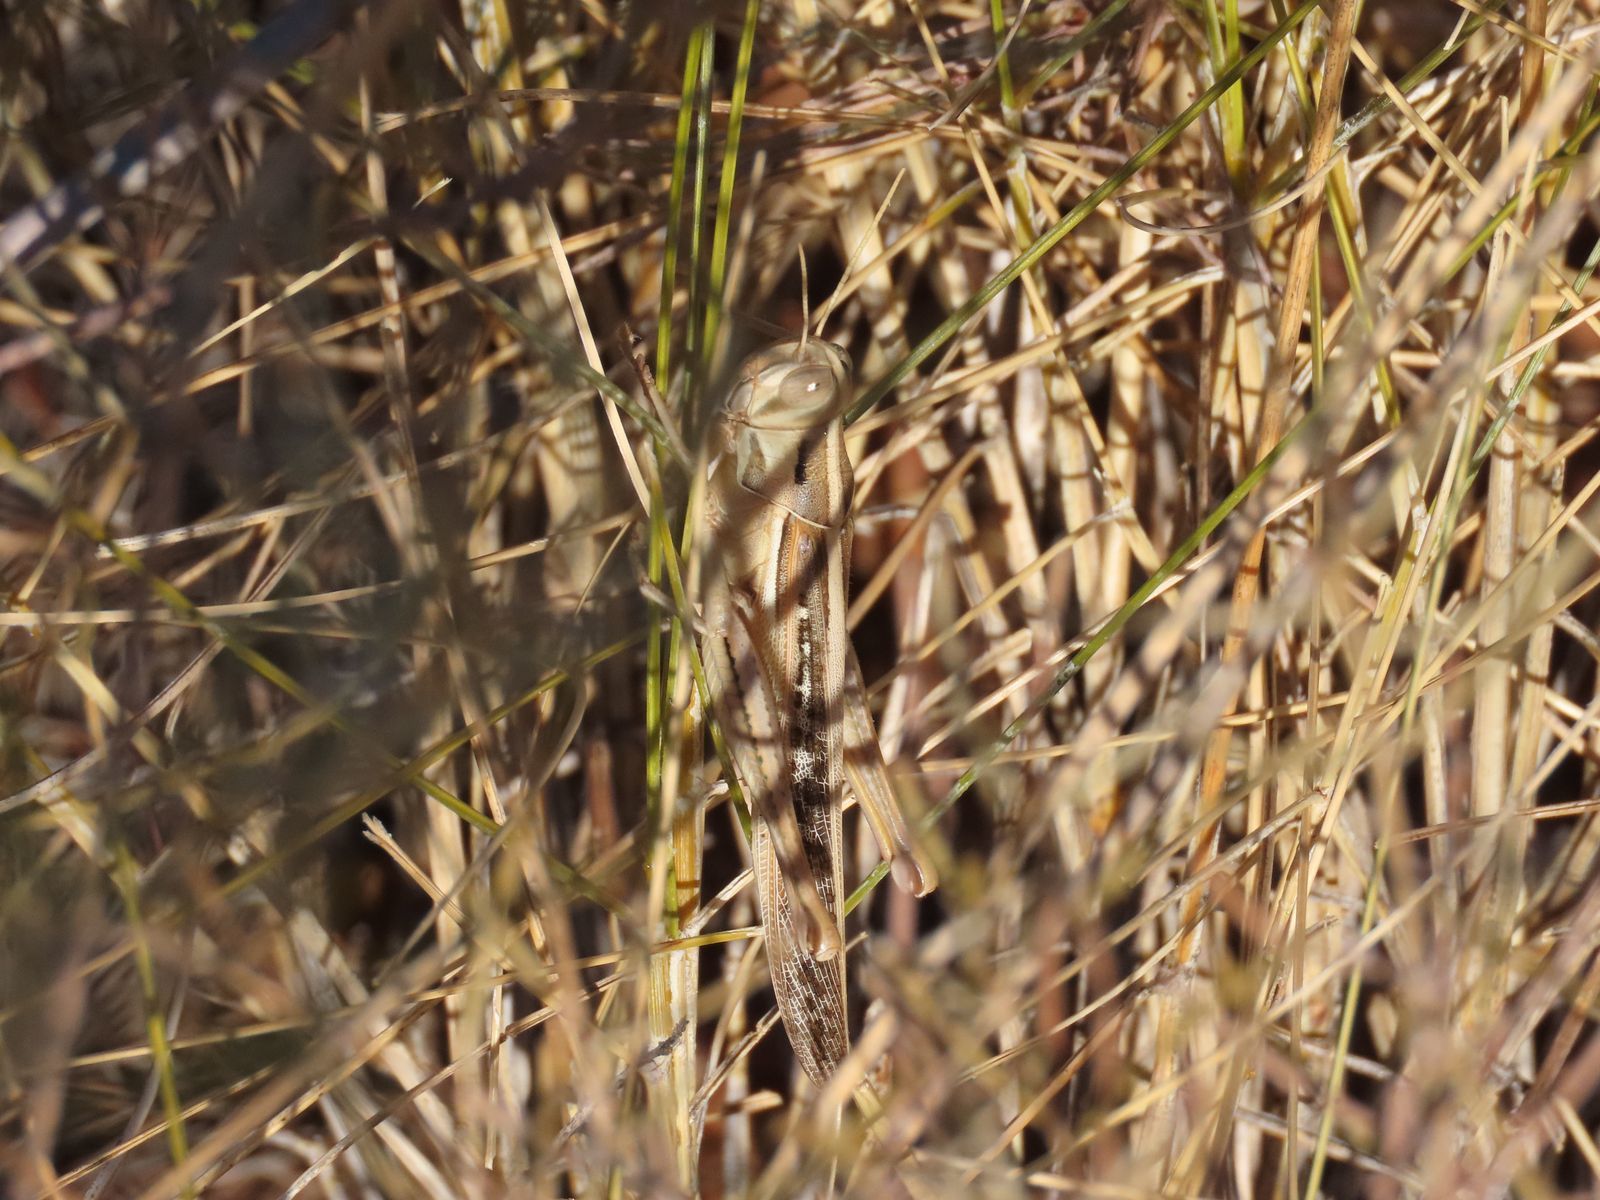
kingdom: Animalia
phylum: Arthropoda
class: Insecta
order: Orthoptera
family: Acrididae
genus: Austracris
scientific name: Austracris guttulosa
